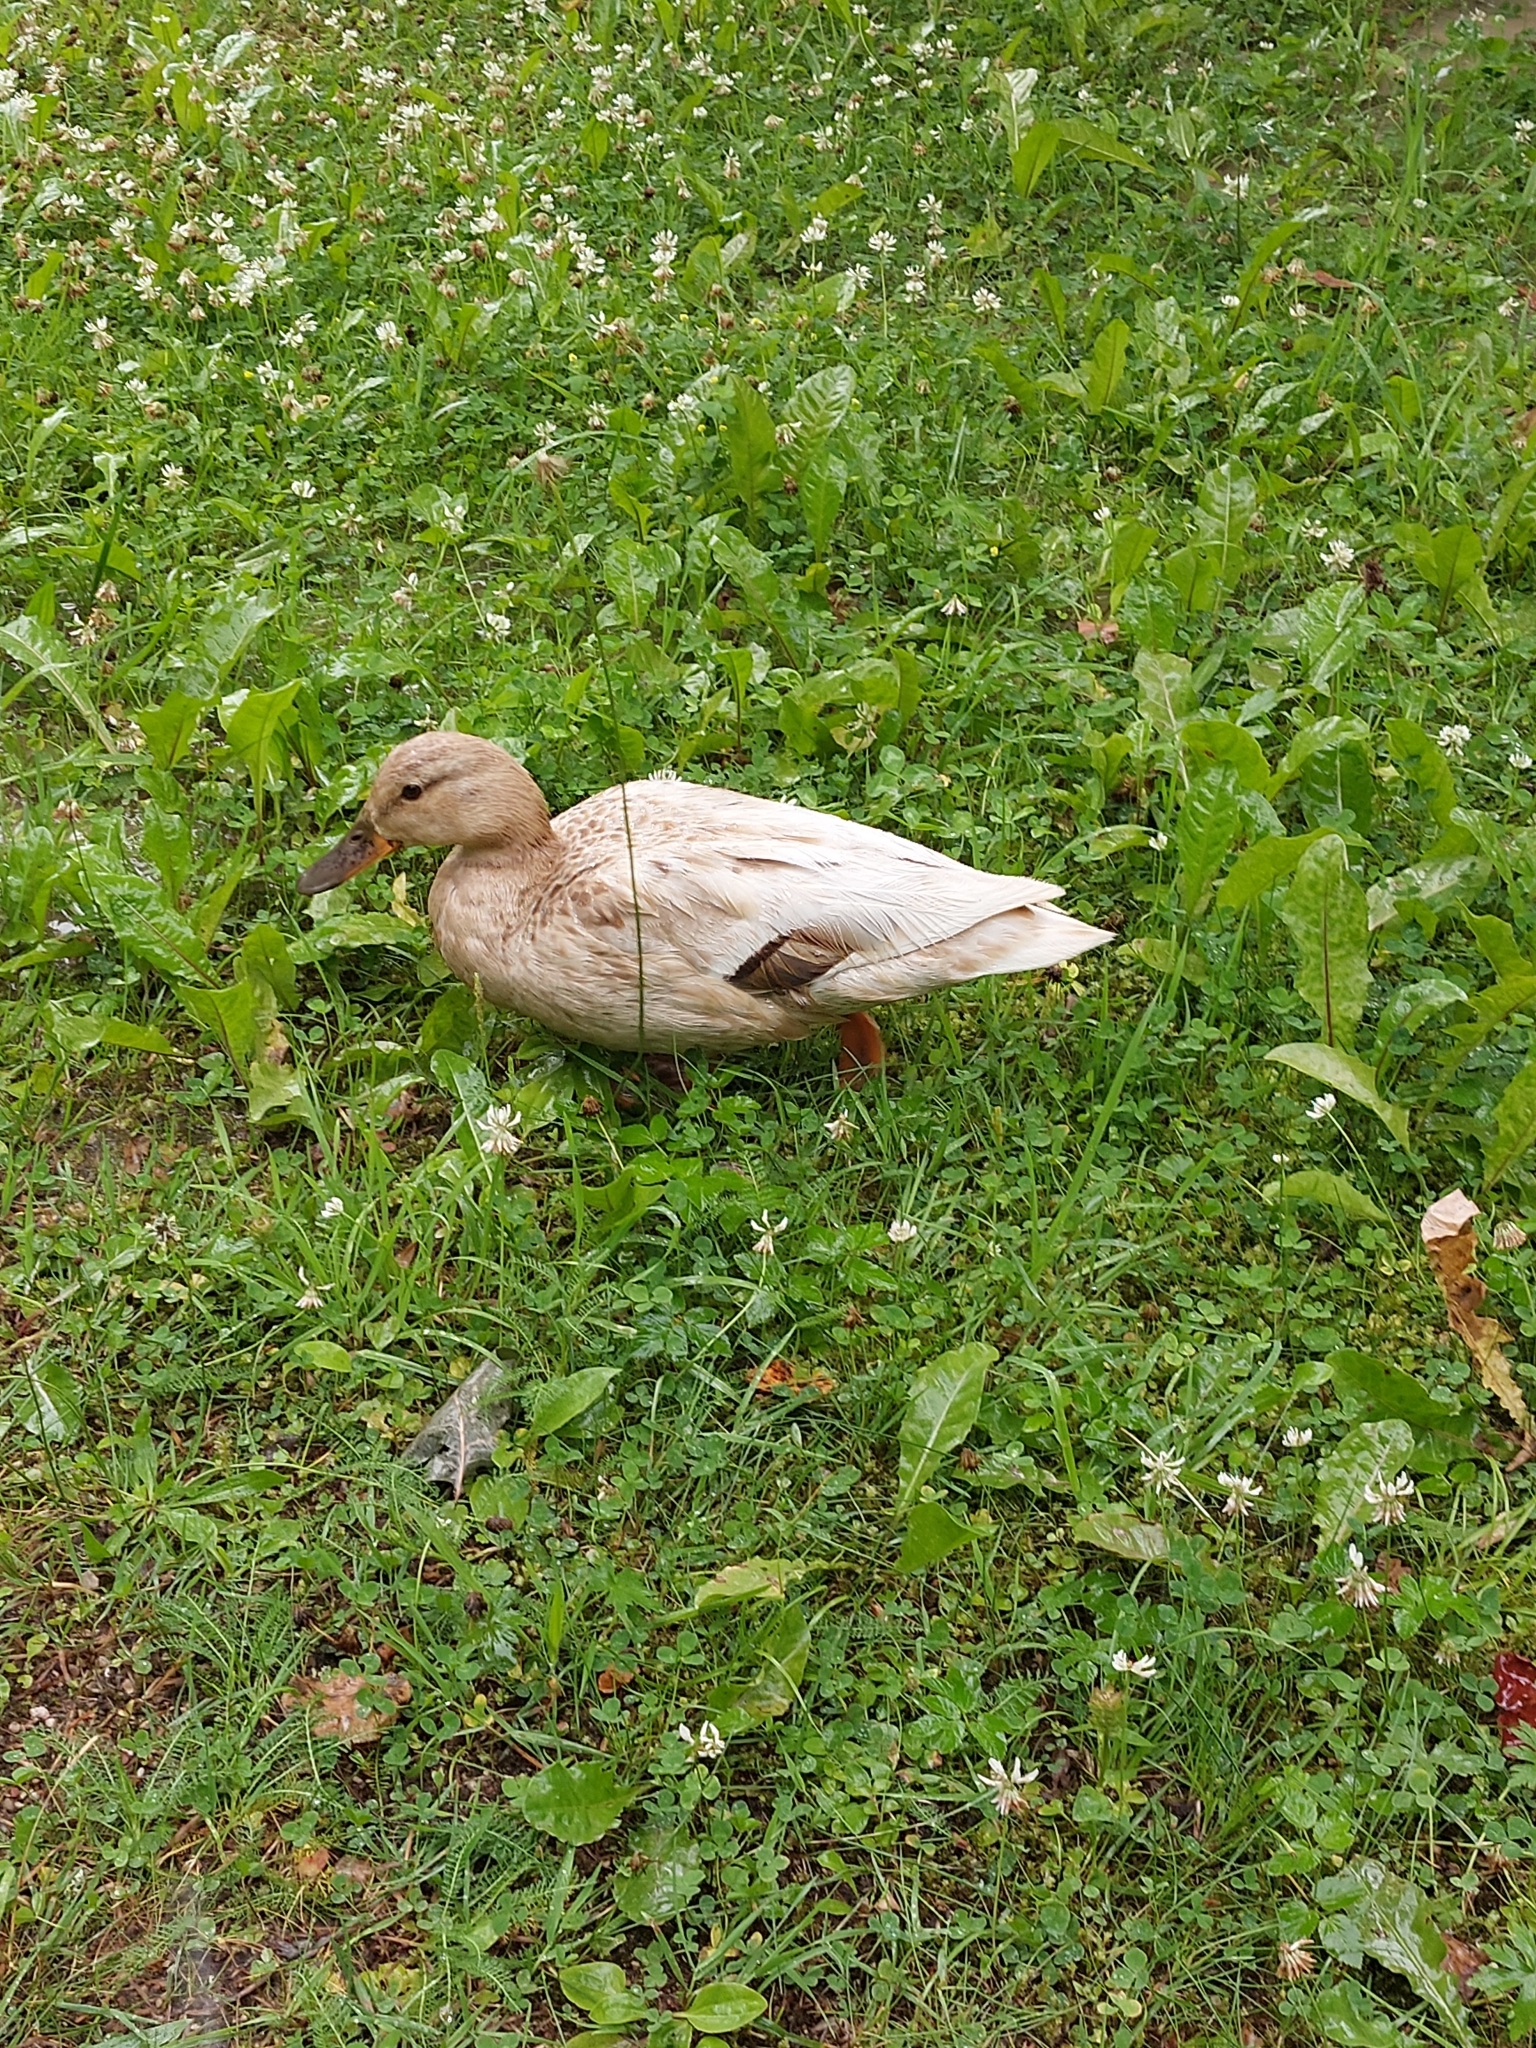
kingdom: Animalia
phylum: Chordata
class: Aves
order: Anseriformes
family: Anatidae
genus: Anas
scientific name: Anas platyrhynchos
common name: Mallard
